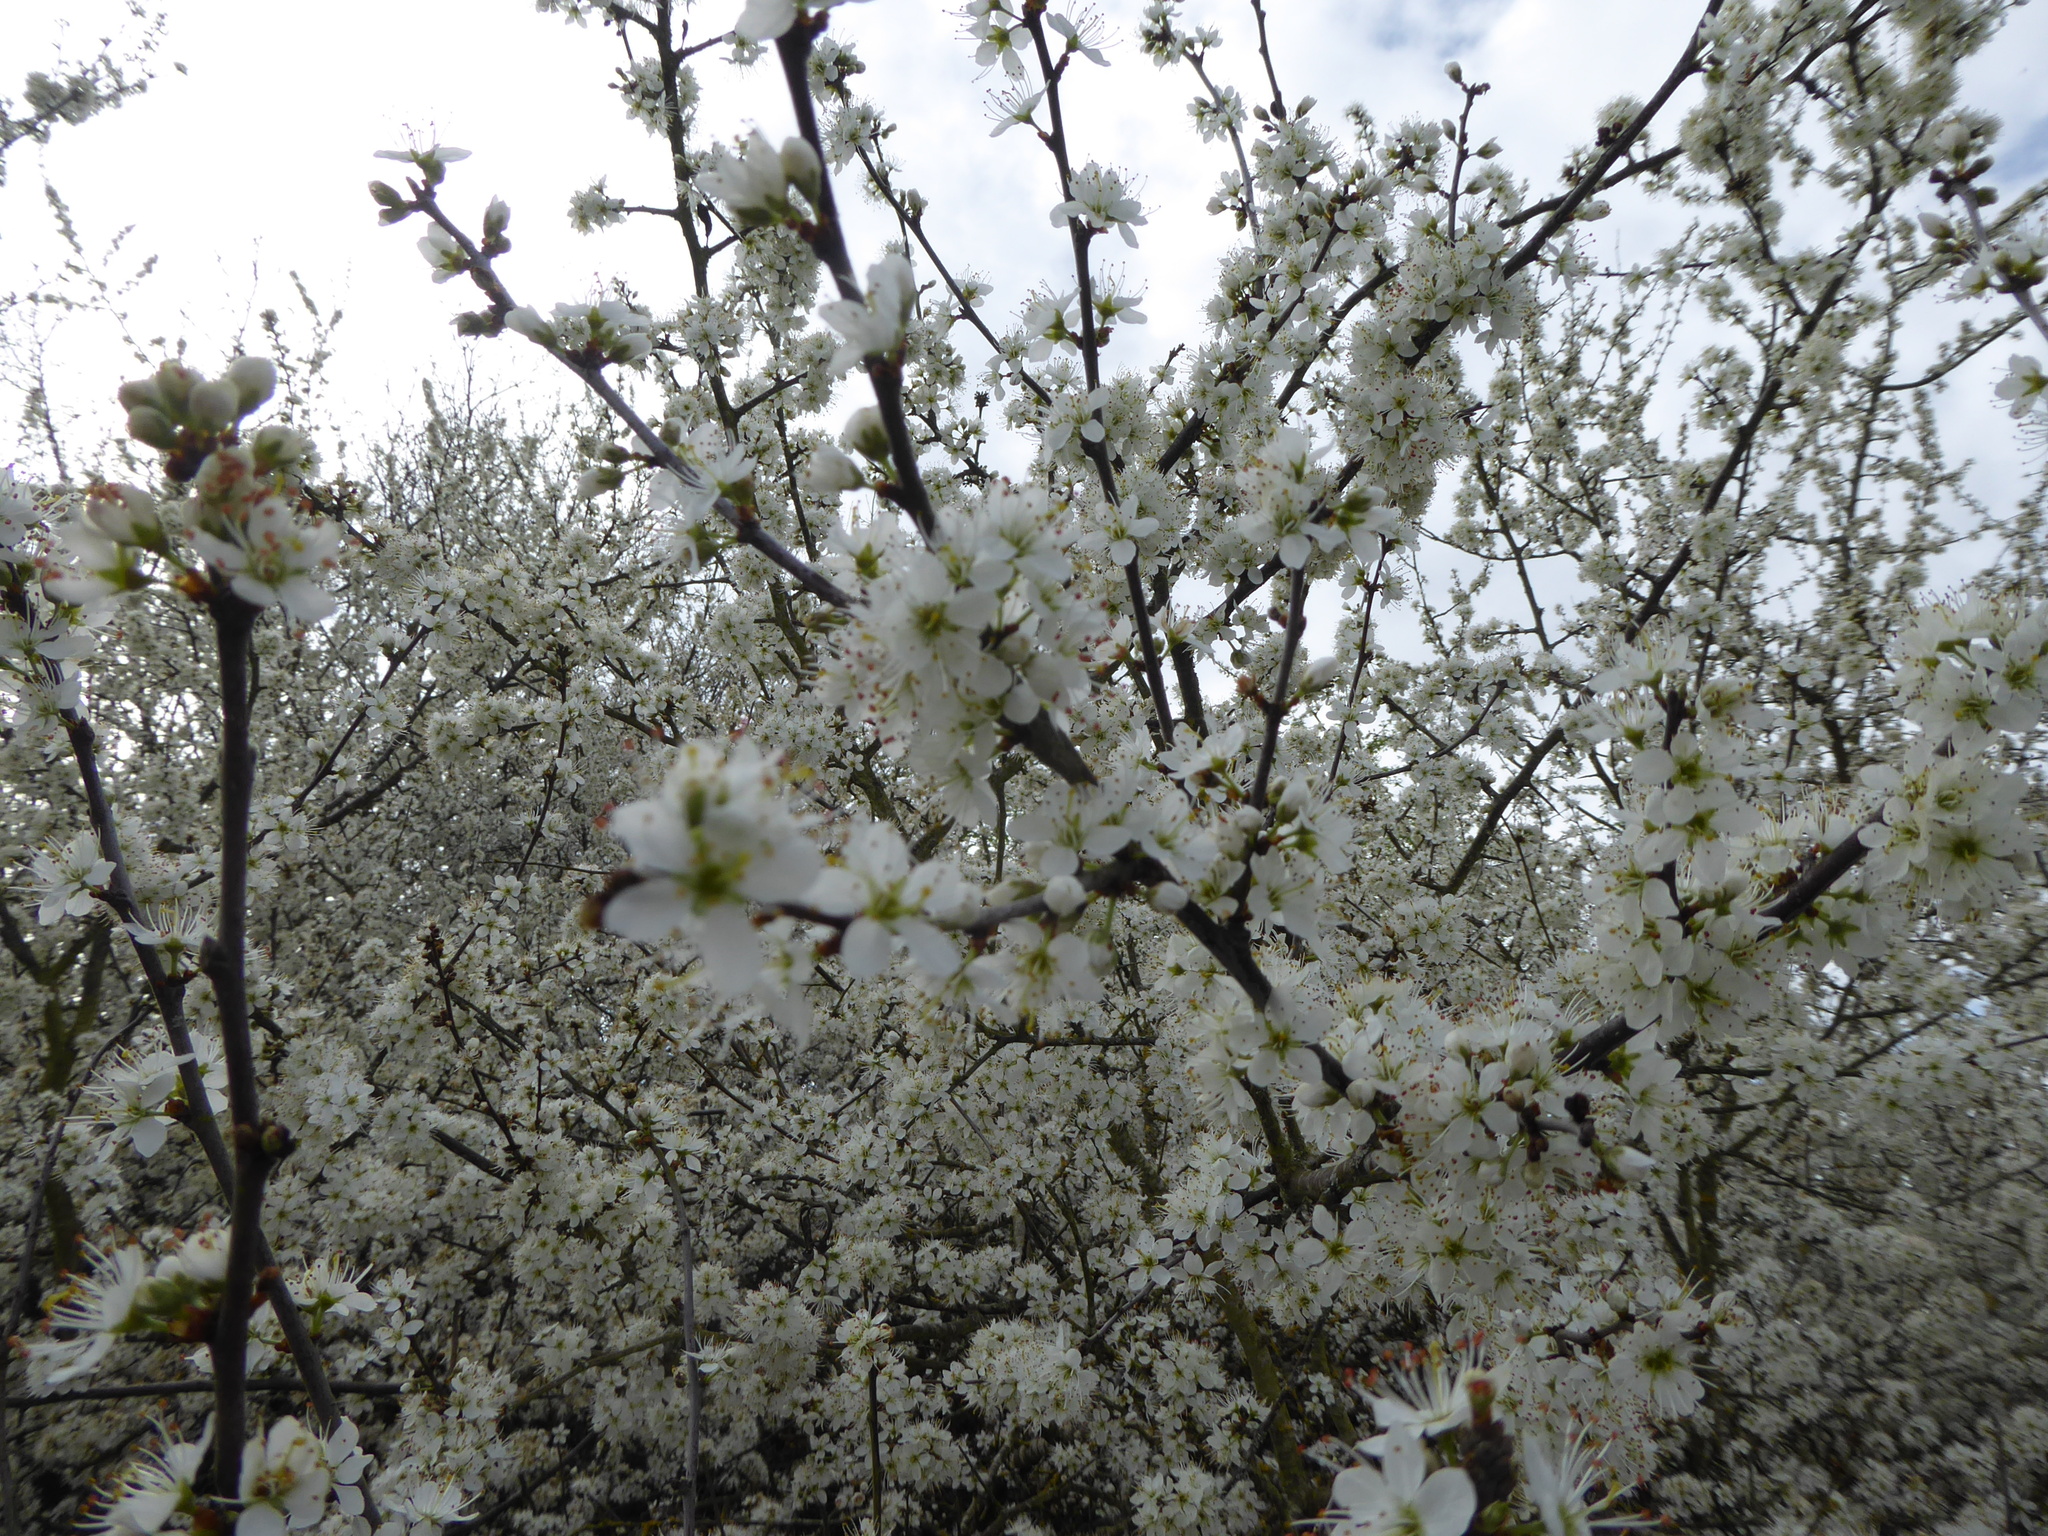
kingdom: Plantae
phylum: Tracheophyta
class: Magnoliopsida
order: Rosales
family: Rosaceae
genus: Prunus
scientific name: Prunus spinosa
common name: Blackthorn
